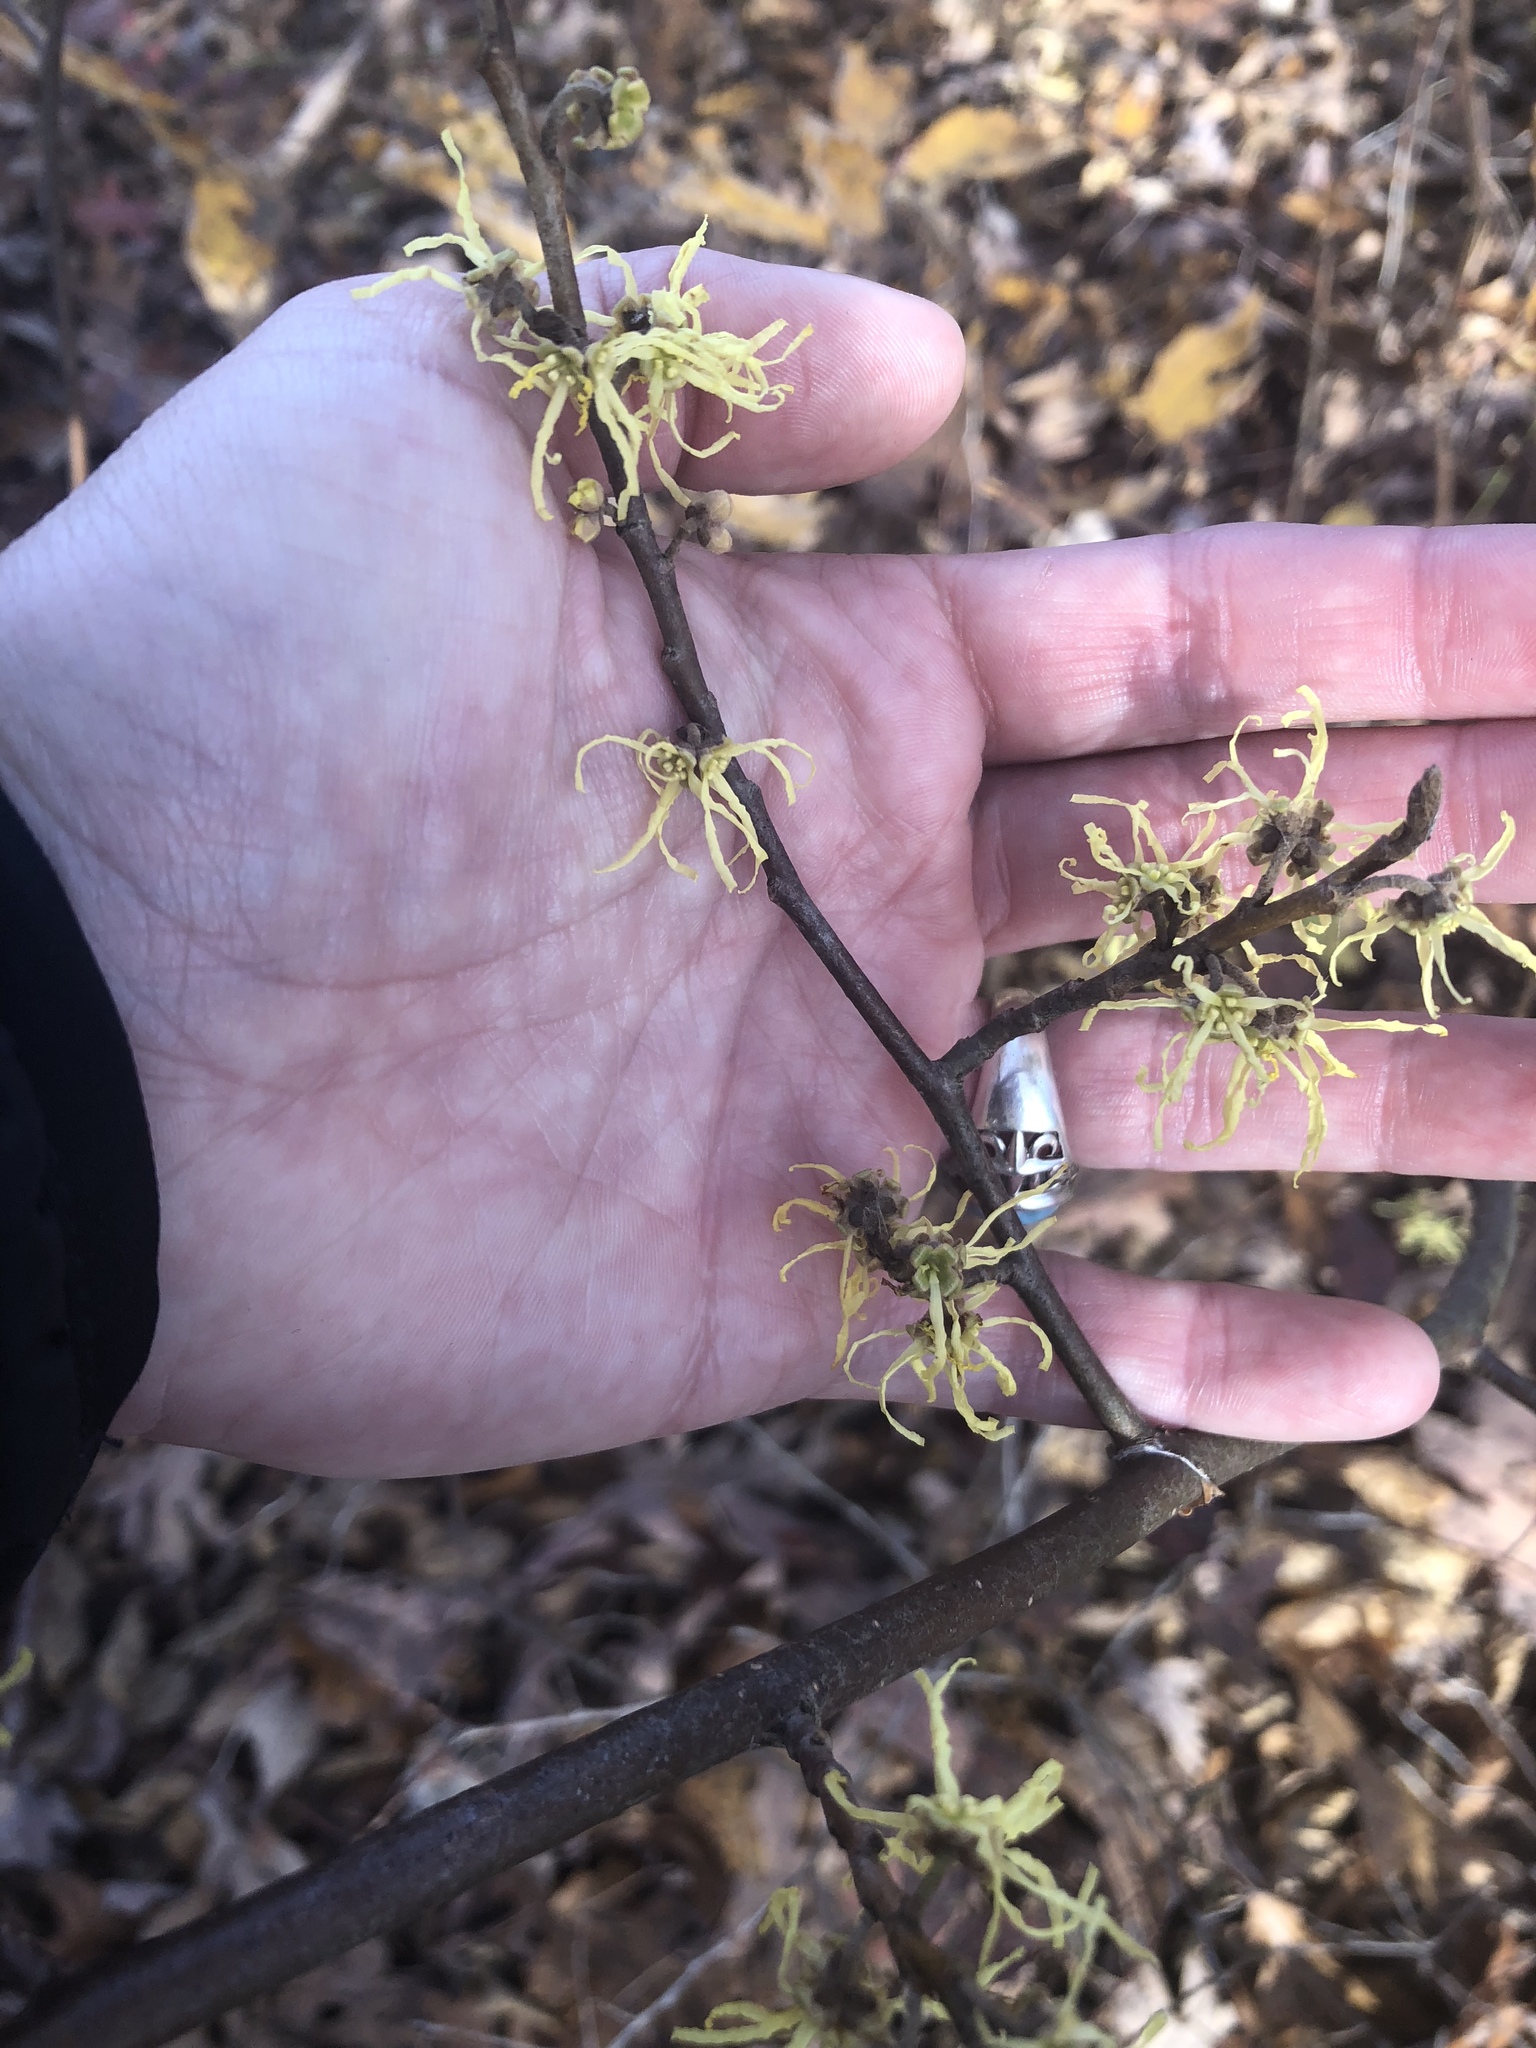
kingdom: Plantae
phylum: Tracheophyta
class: Magnoliopsida
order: Saxifragales
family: Hamamelidaceae
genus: Hamamelis
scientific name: Hamamelis virginiana
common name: Witch-hazel
